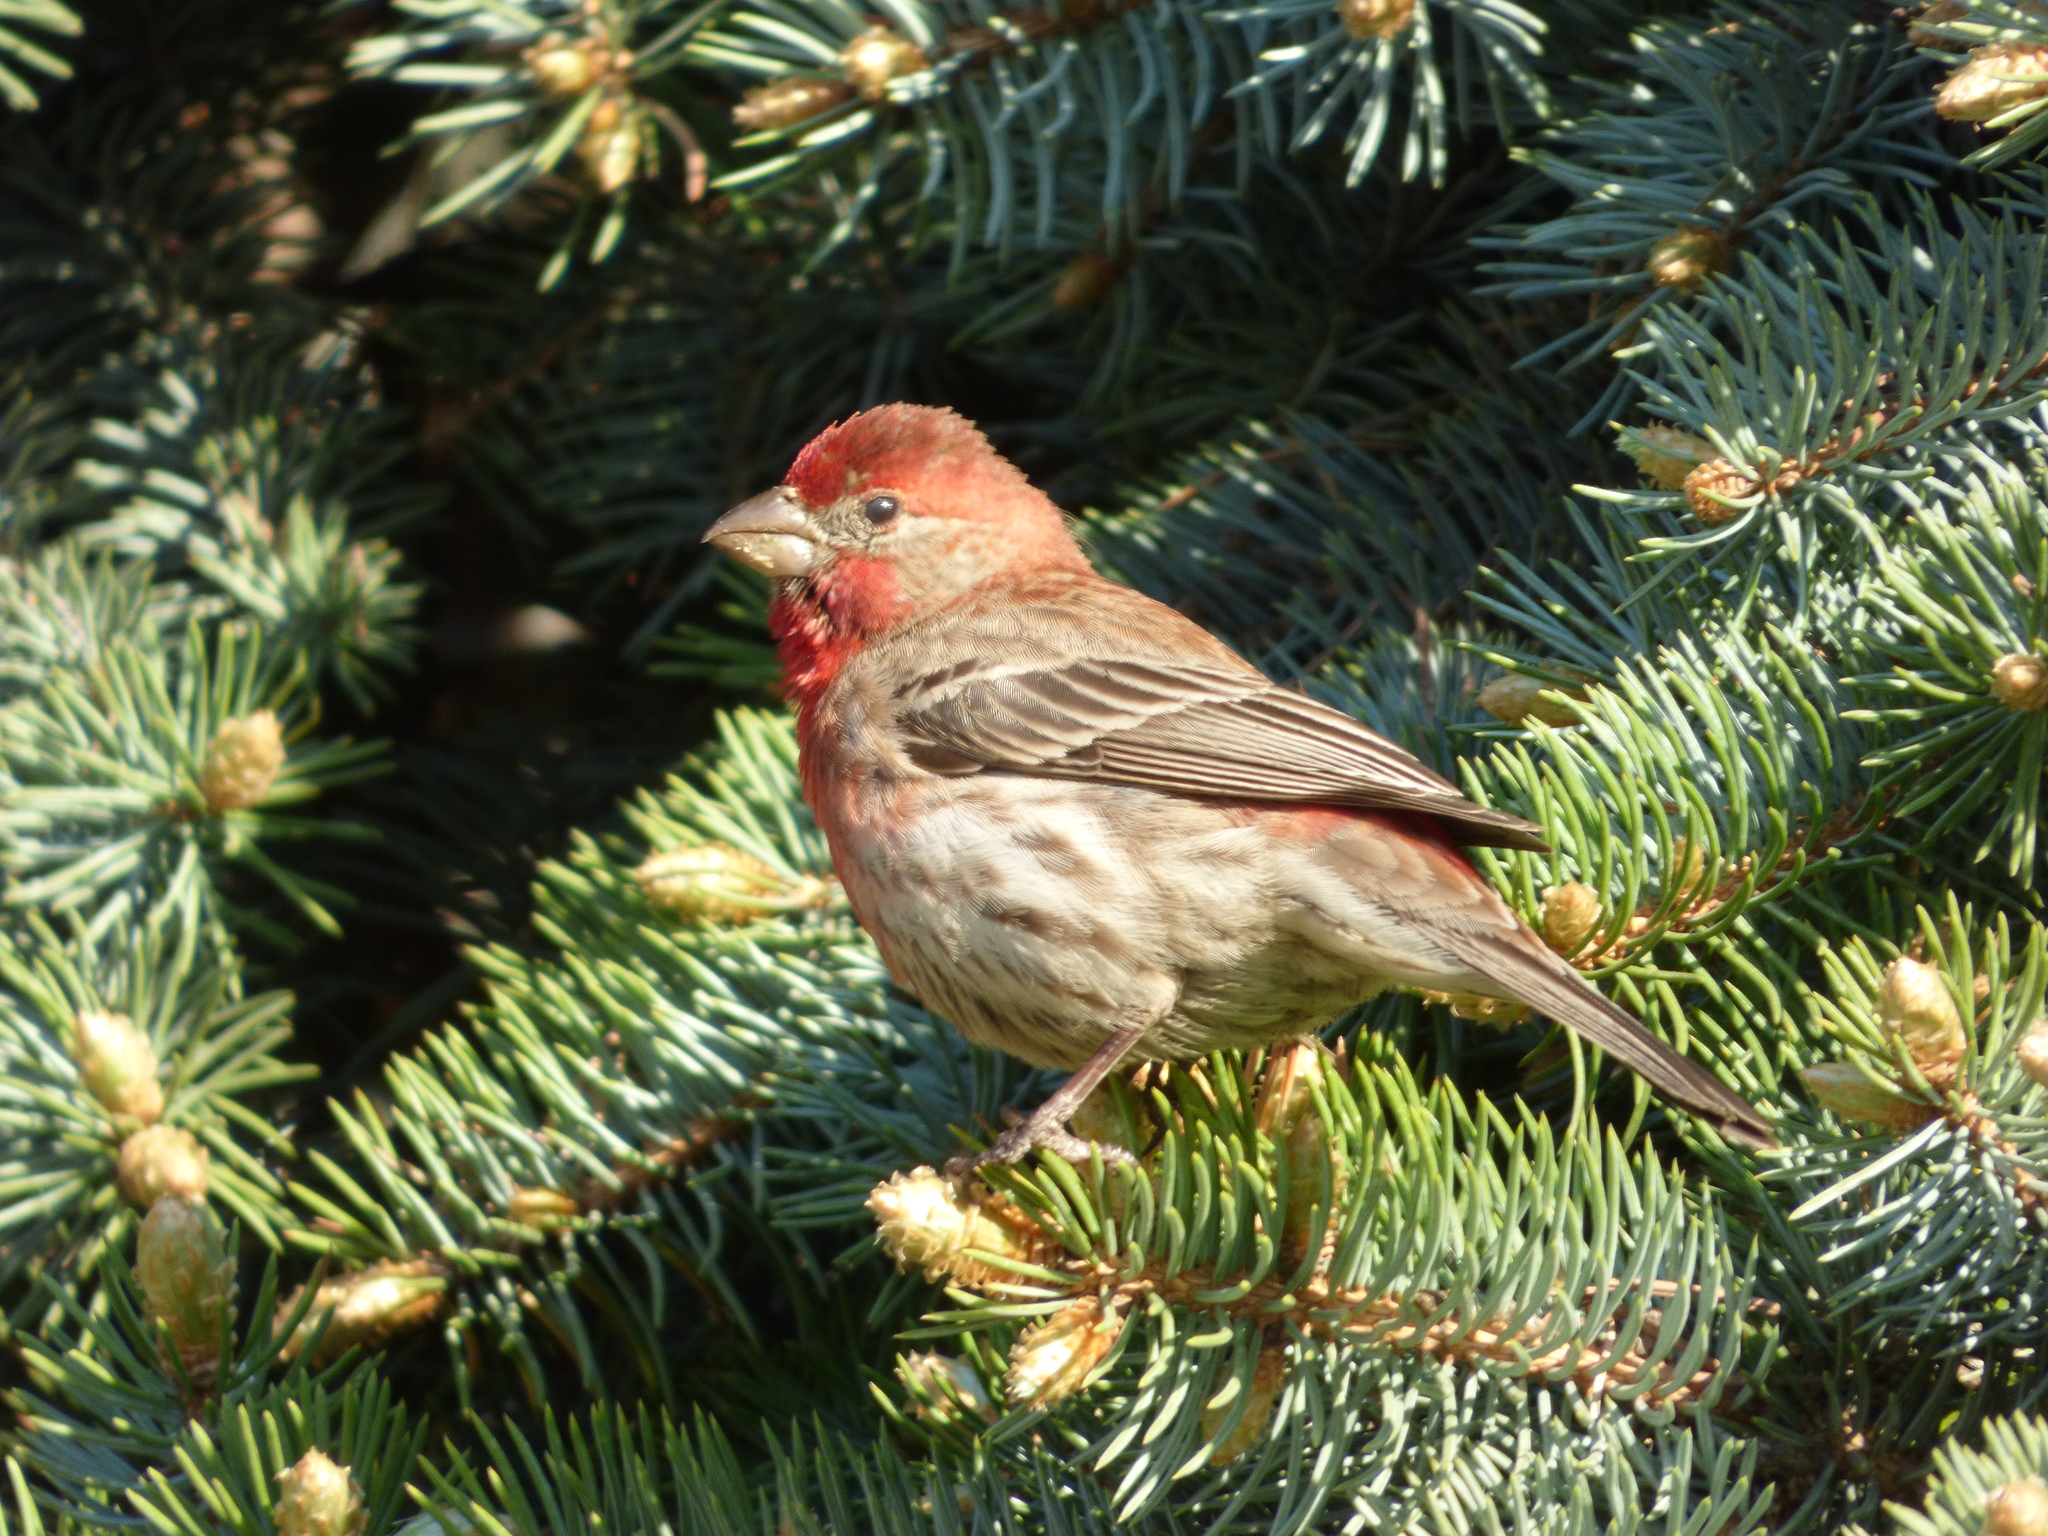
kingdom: Animalia
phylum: Chordata
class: Aves
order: Passeriformes
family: Fringillidae
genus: Haemorhous
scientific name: Haemorhous mexicanus
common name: House finch
